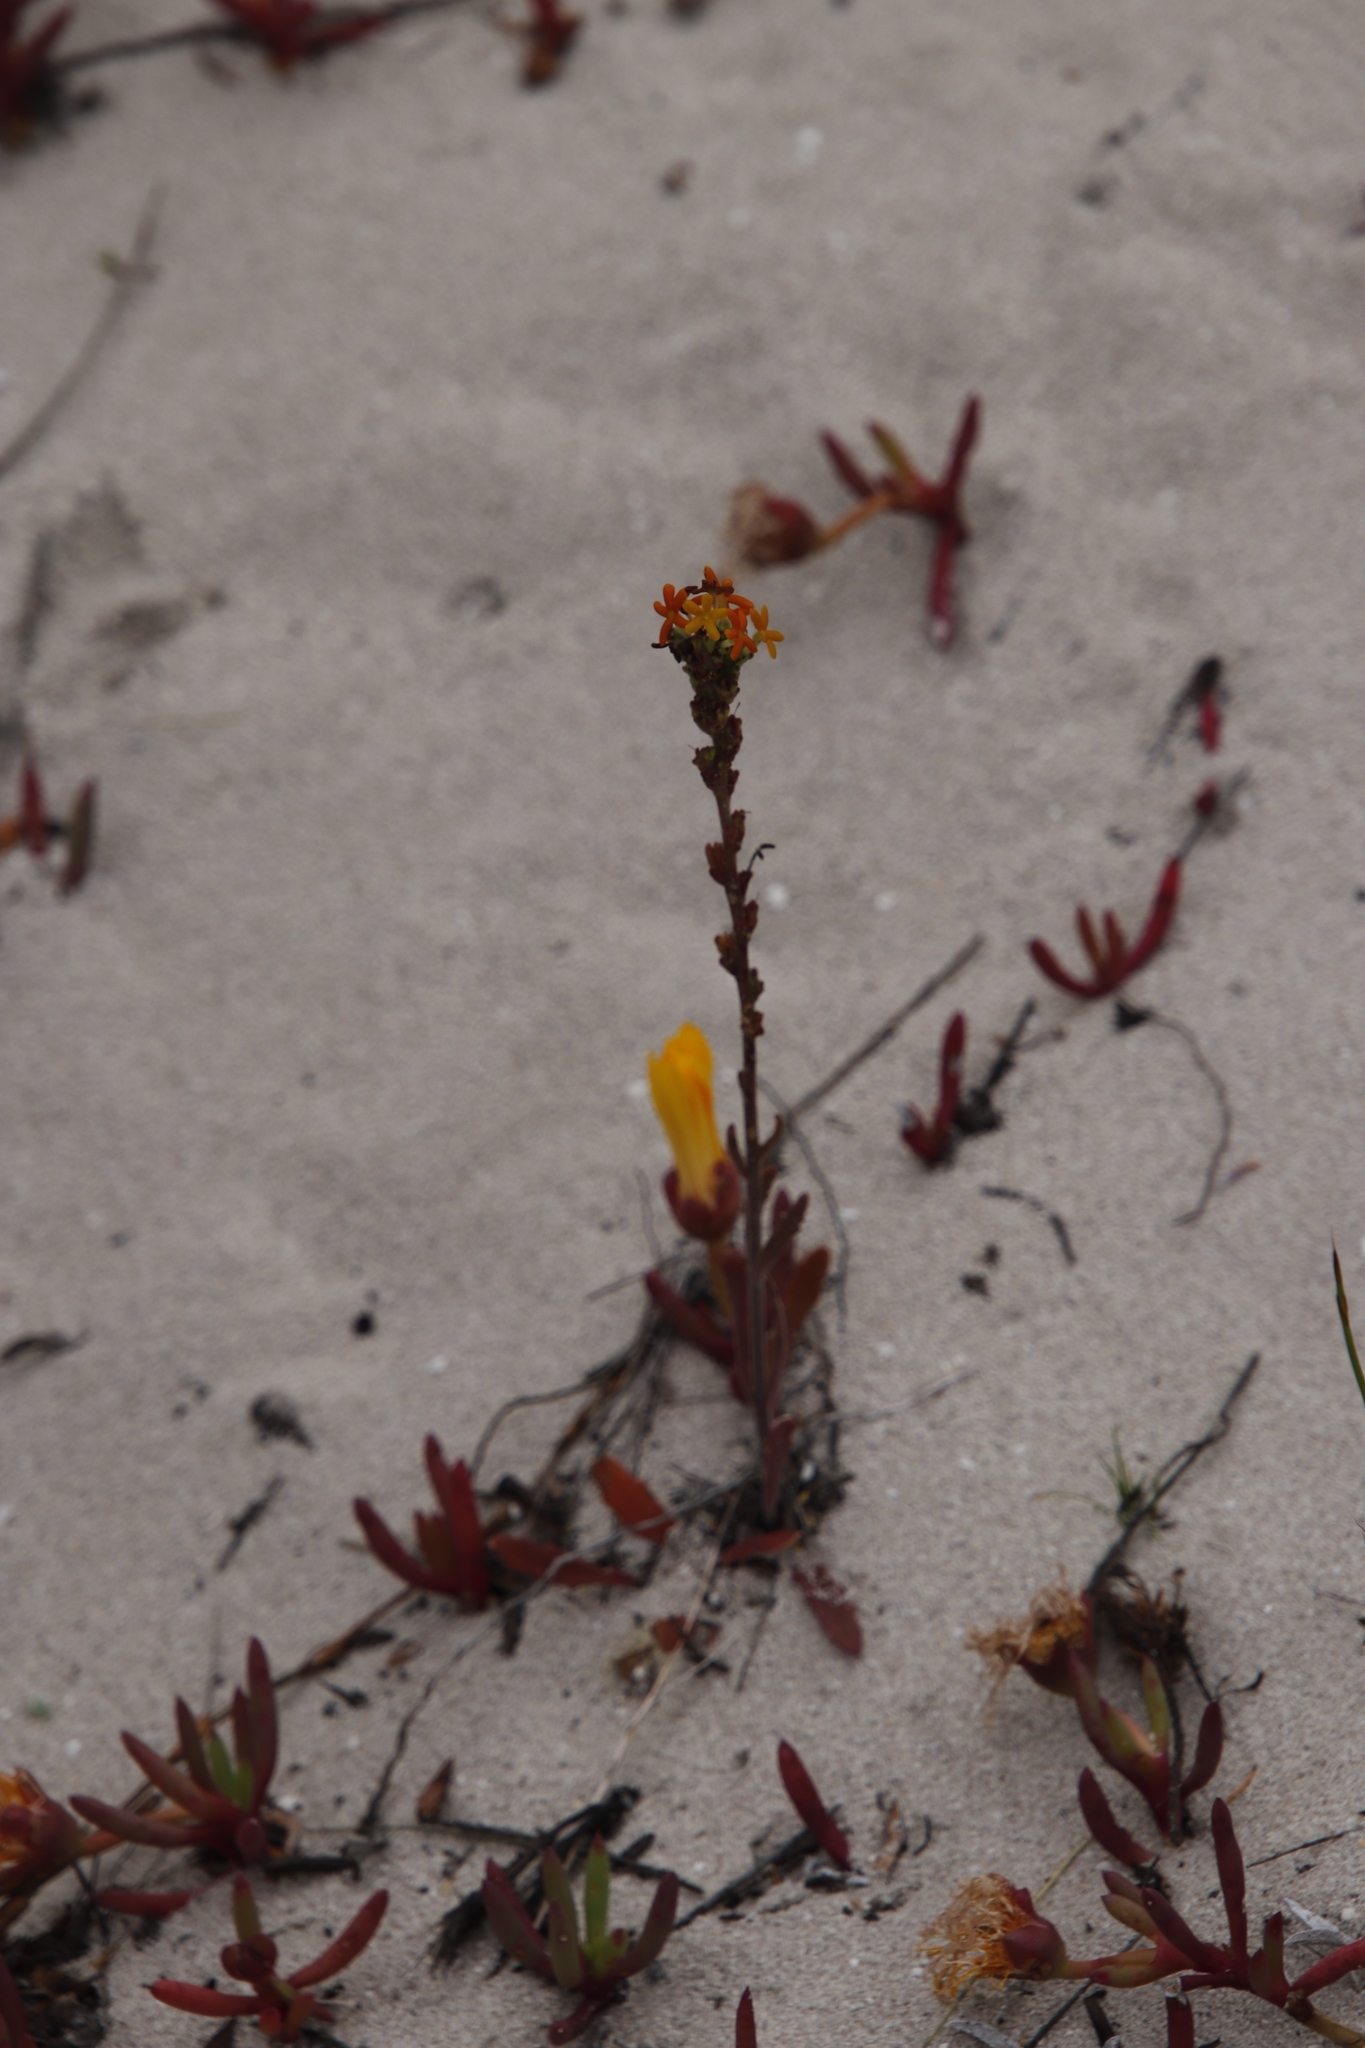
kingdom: Plantae
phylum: Tracheophyta
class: Magnoliopsida
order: Caryophyllales
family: Aizoaceae
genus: Jordaaniella
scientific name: Jordaaniella dubia
